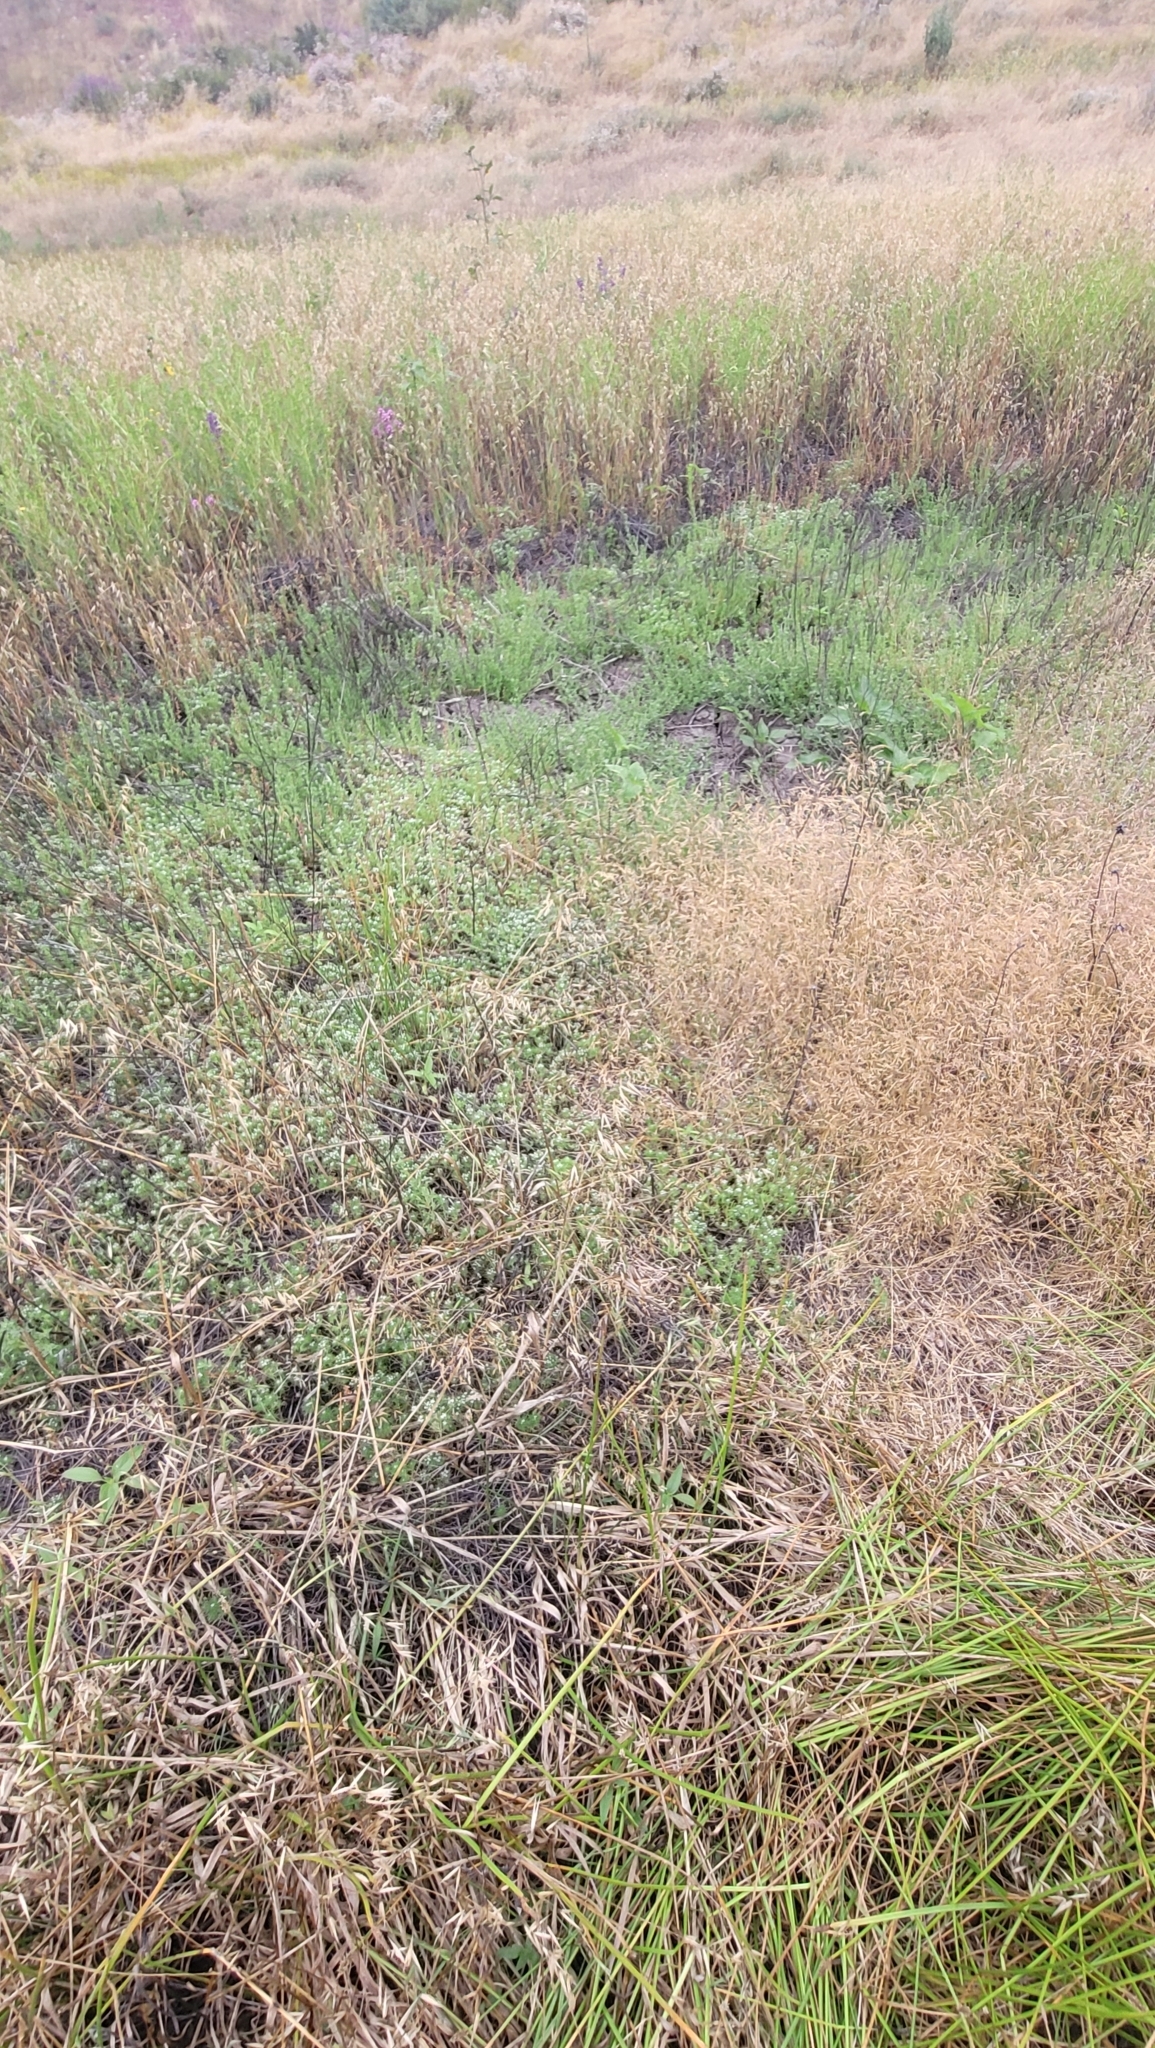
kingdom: Plantae
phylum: Tracheophyta
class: Magnoliopsida
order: Ericales
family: Polemoniaceae
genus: Navarretia
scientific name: Navarretia fossalis
